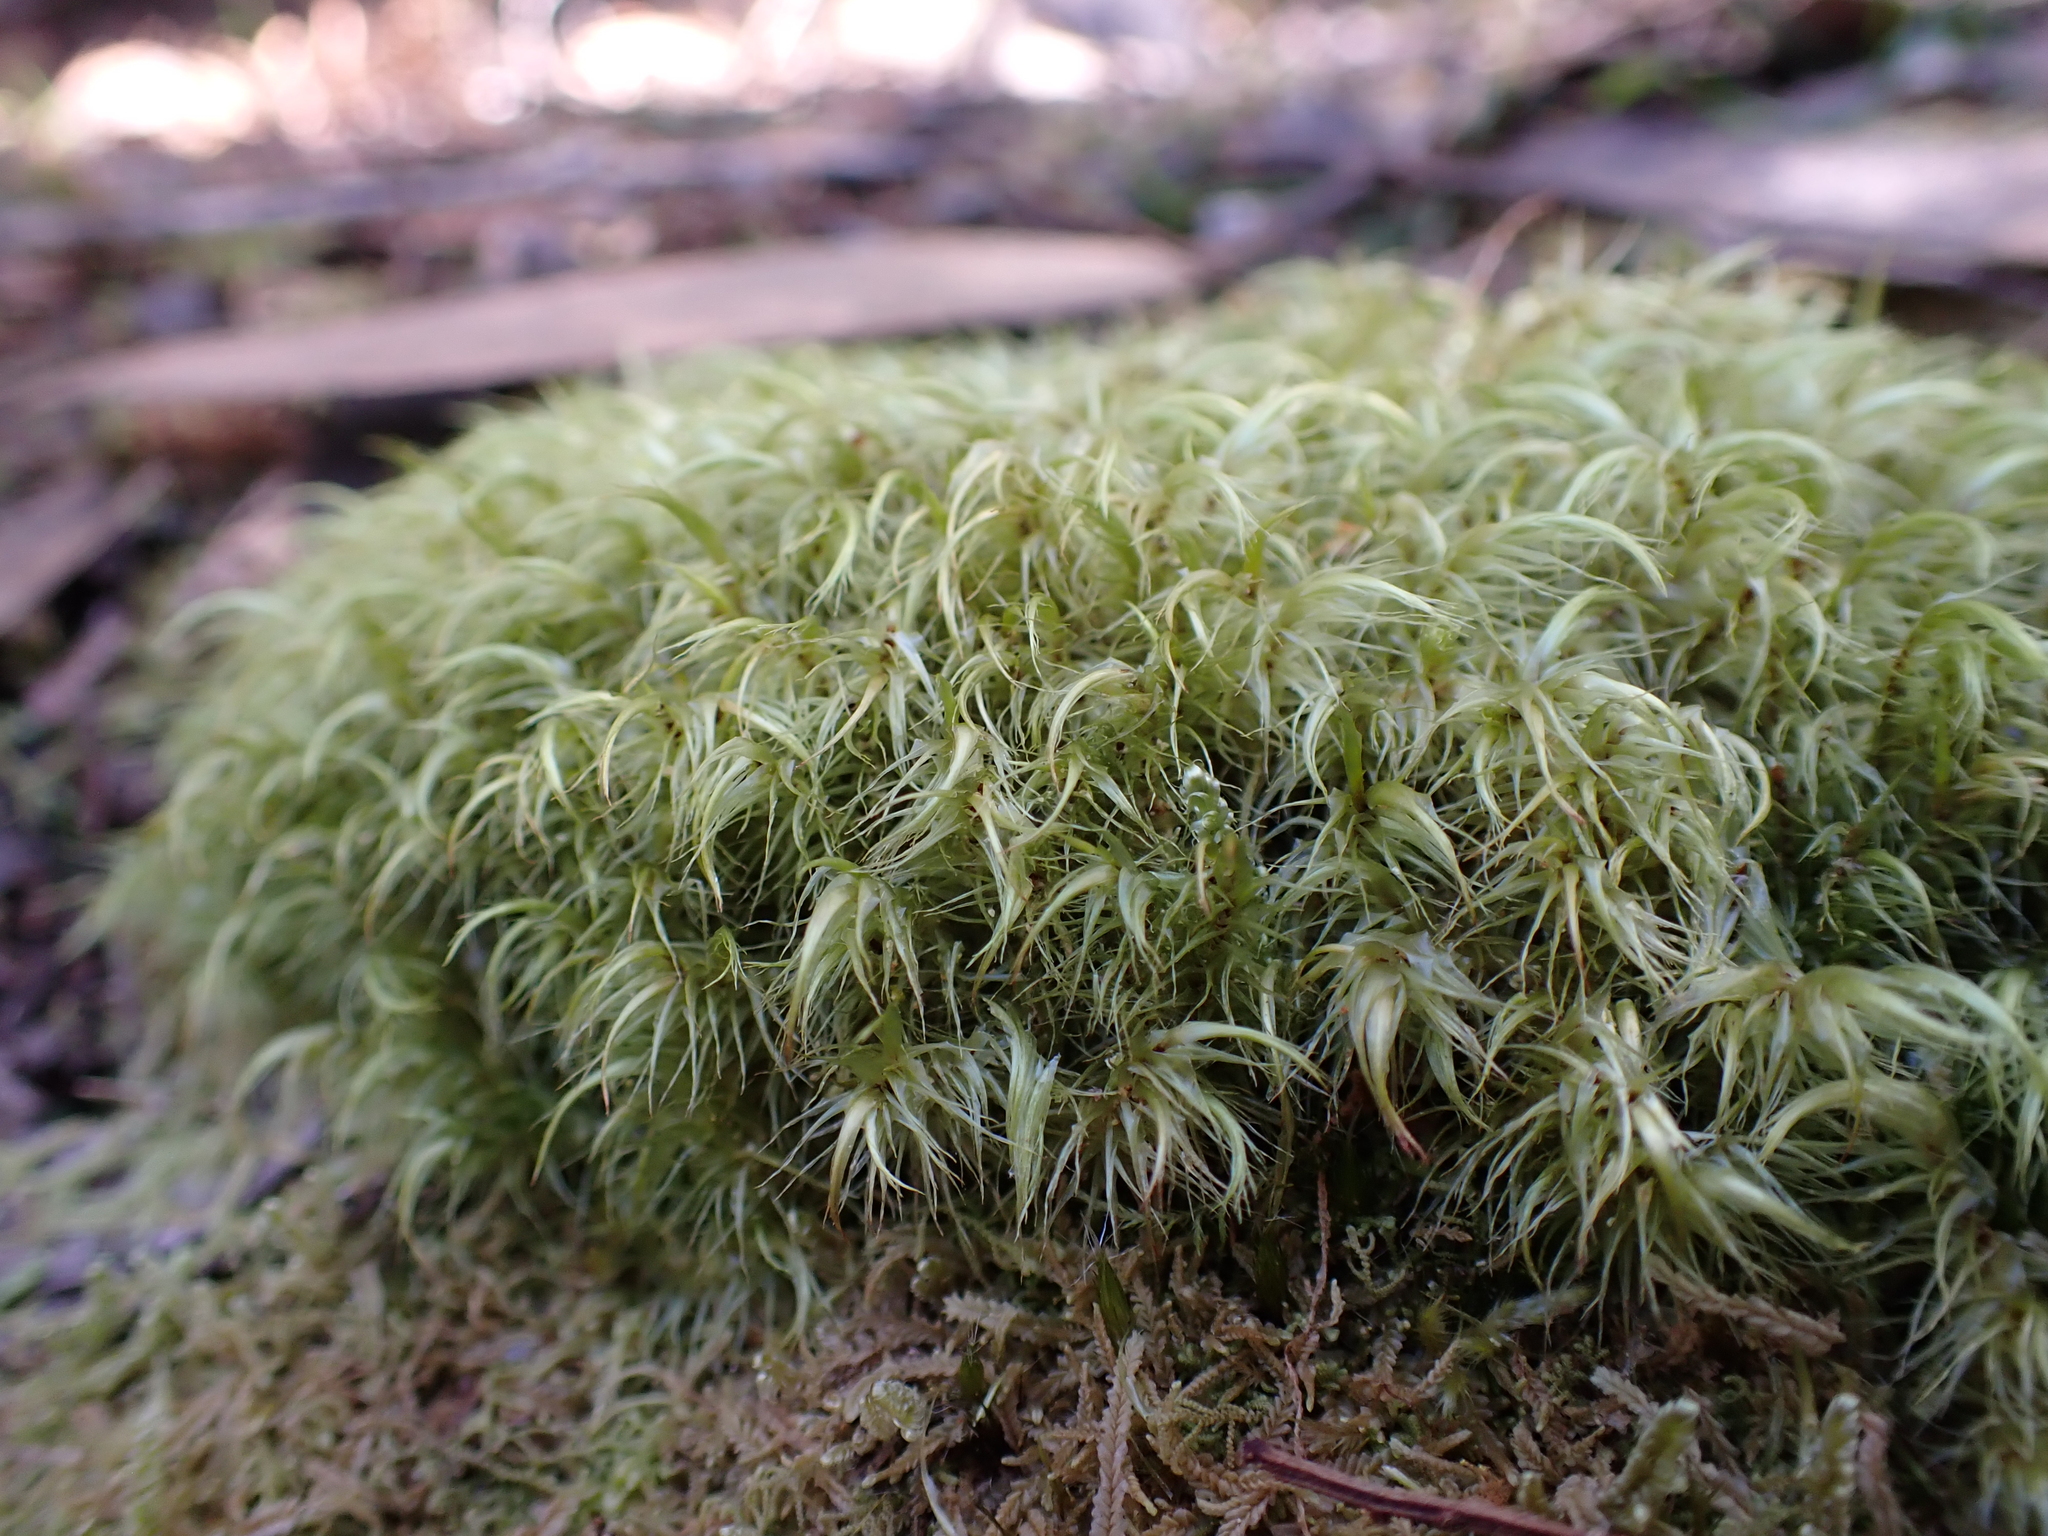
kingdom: Plantae
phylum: Bryophyta
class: Bryopsida
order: Dicranales
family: Dicranaceae
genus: Dicranoloma
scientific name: Dicranoloma billardieri
